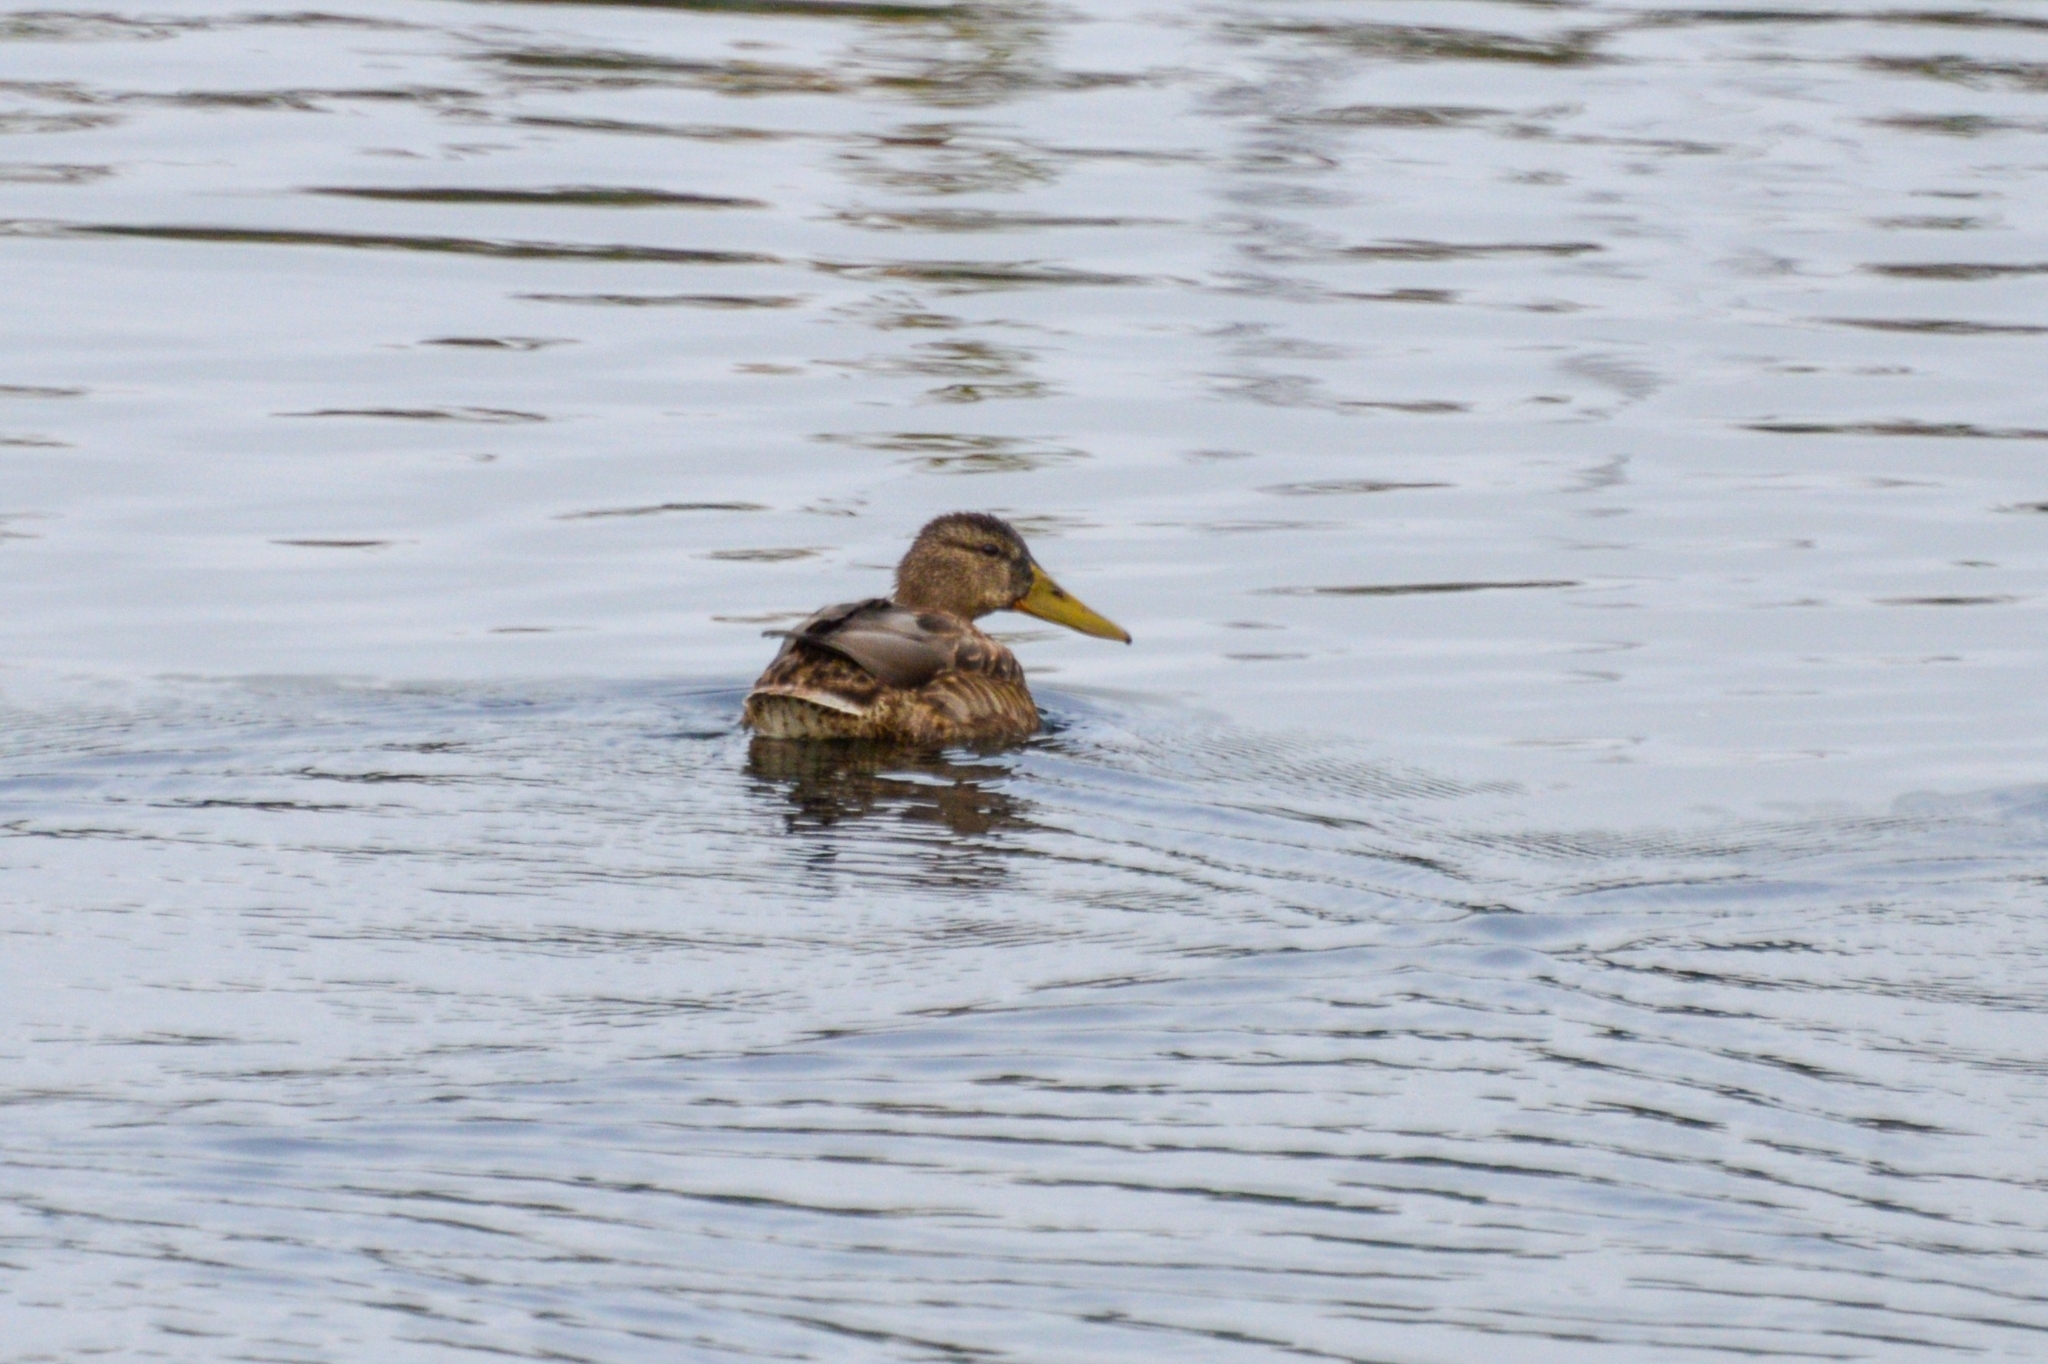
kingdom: Animalia
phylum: Chordata
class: Aves
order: Anseriformes
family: Anatidae
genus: Anas
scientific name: Anas platyrhynchos
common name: Mallard
